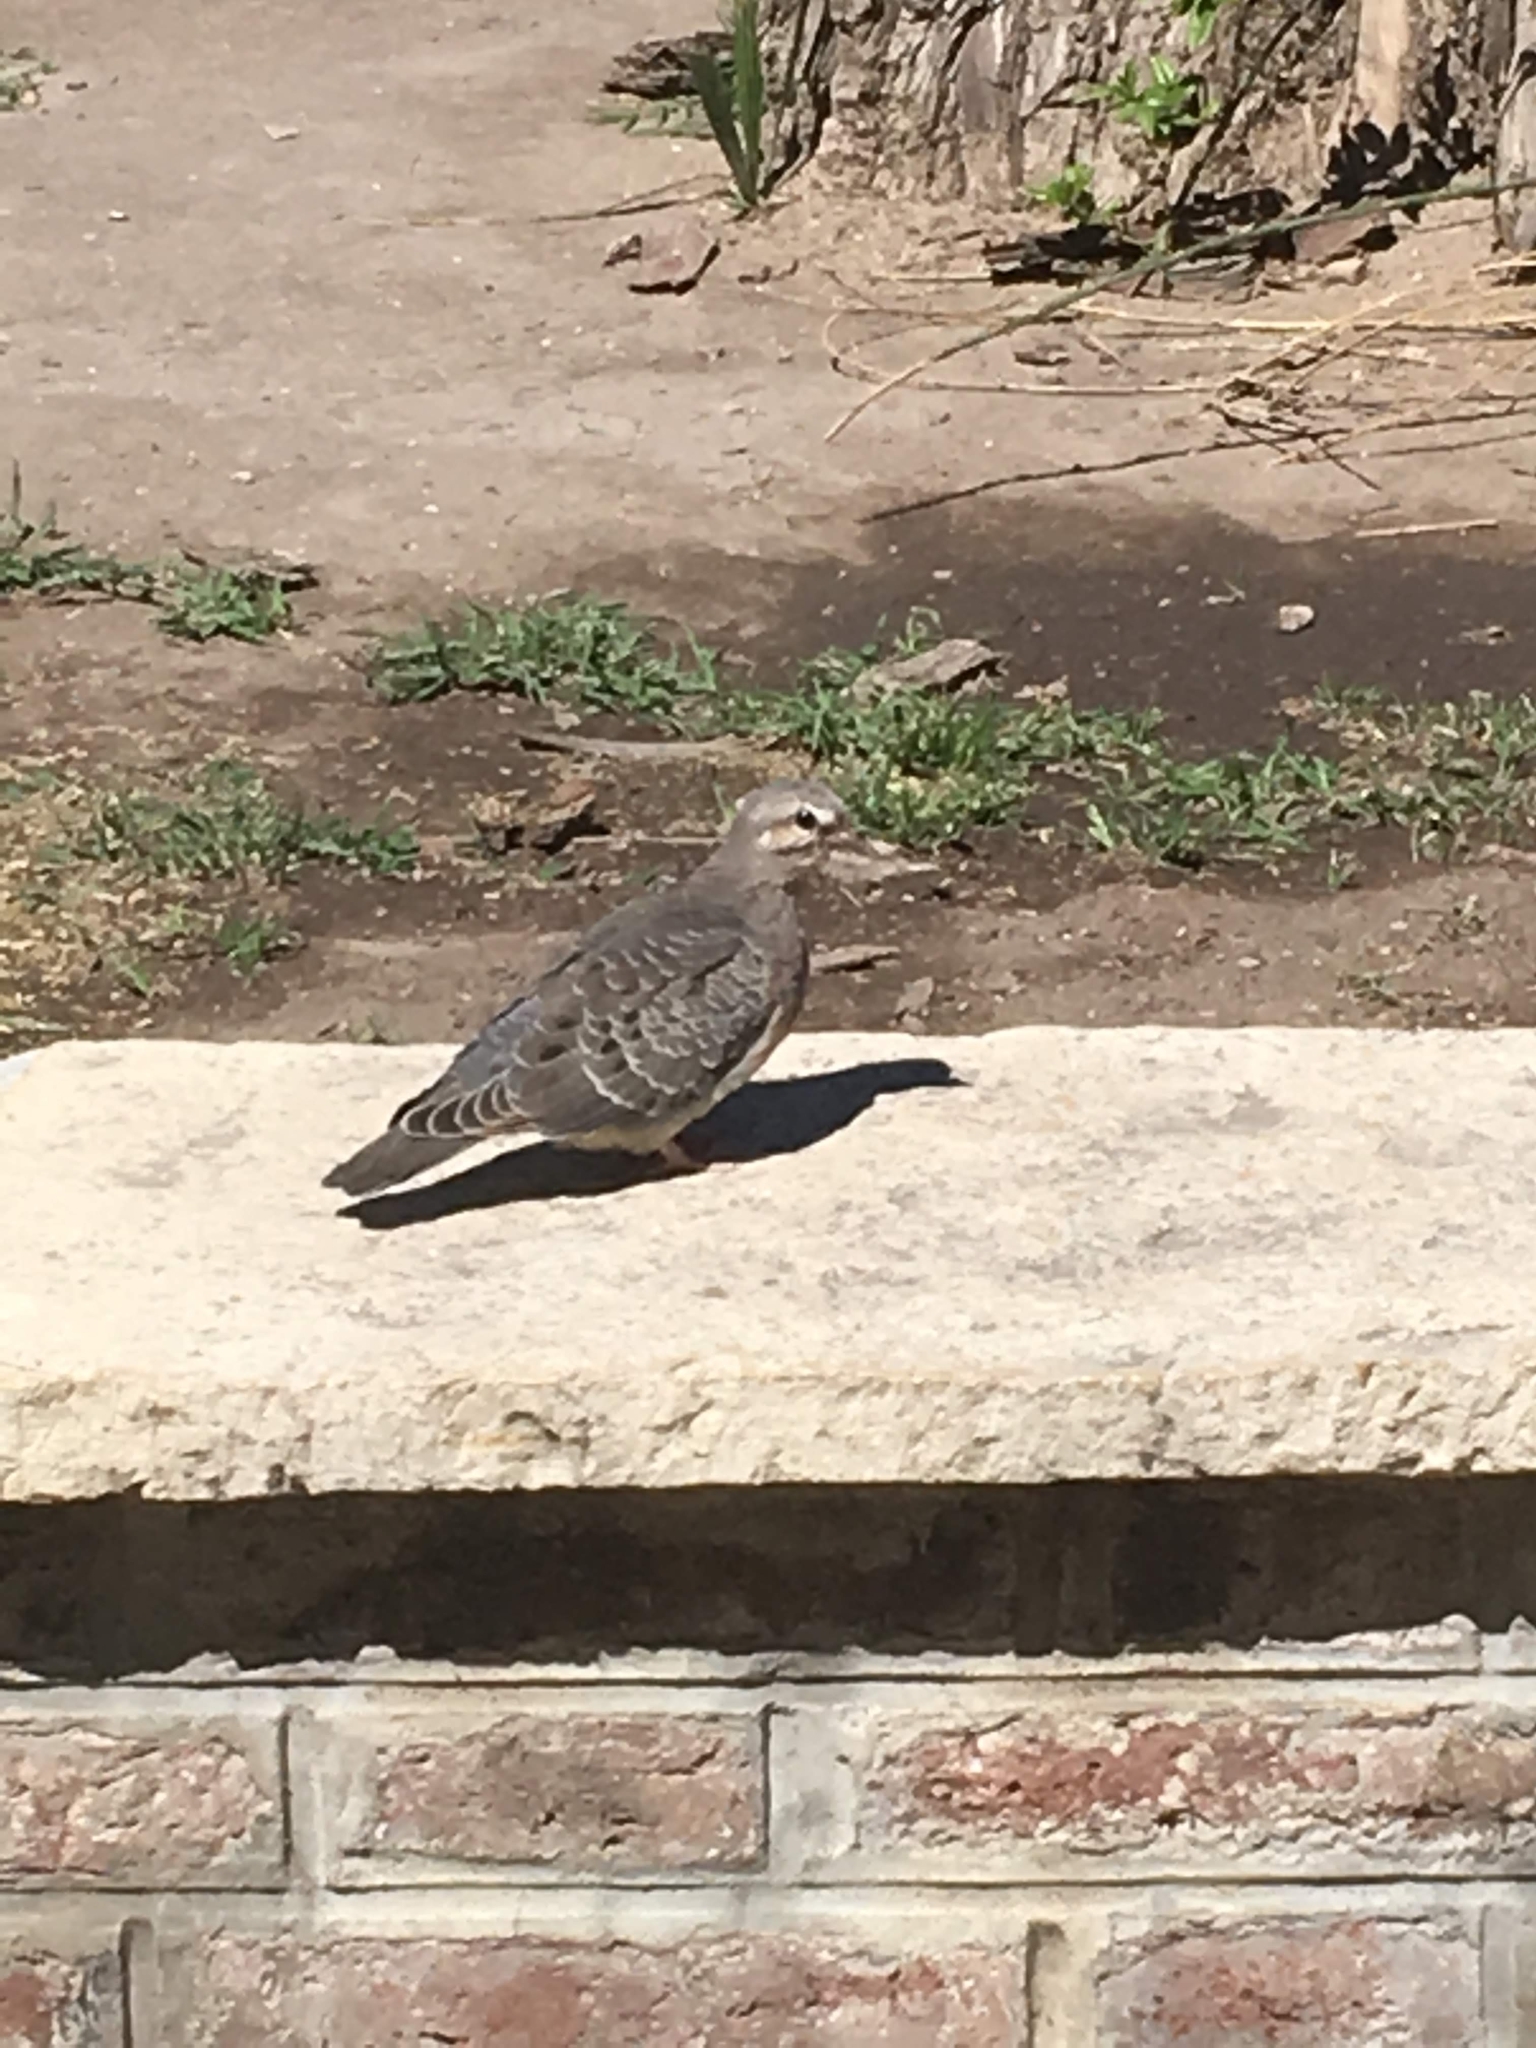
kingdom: Animalia
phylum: Chordata
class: Aves
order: Columbiformes
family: Columbidae
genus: Patagioenas
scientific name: Patagioenas maculosa
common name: Spot-winged pigeon
